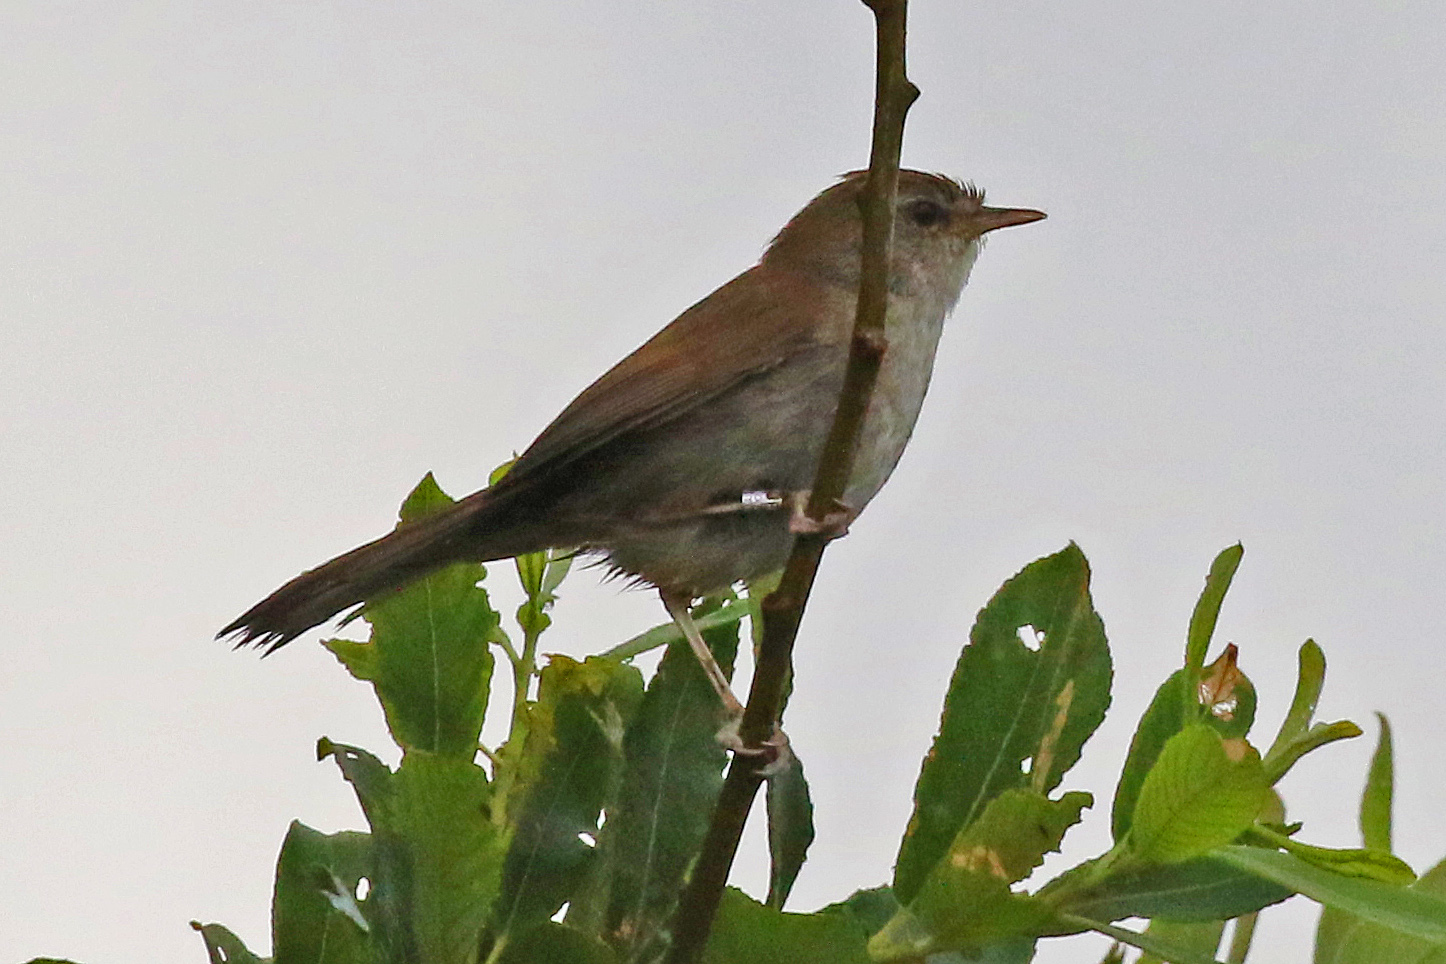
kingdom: Animalia
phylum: Chordata
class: Aves
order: Passeriformes
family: Cettiidae
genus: Cettia
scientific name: Cettia cetti
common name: Cetti's warbler
